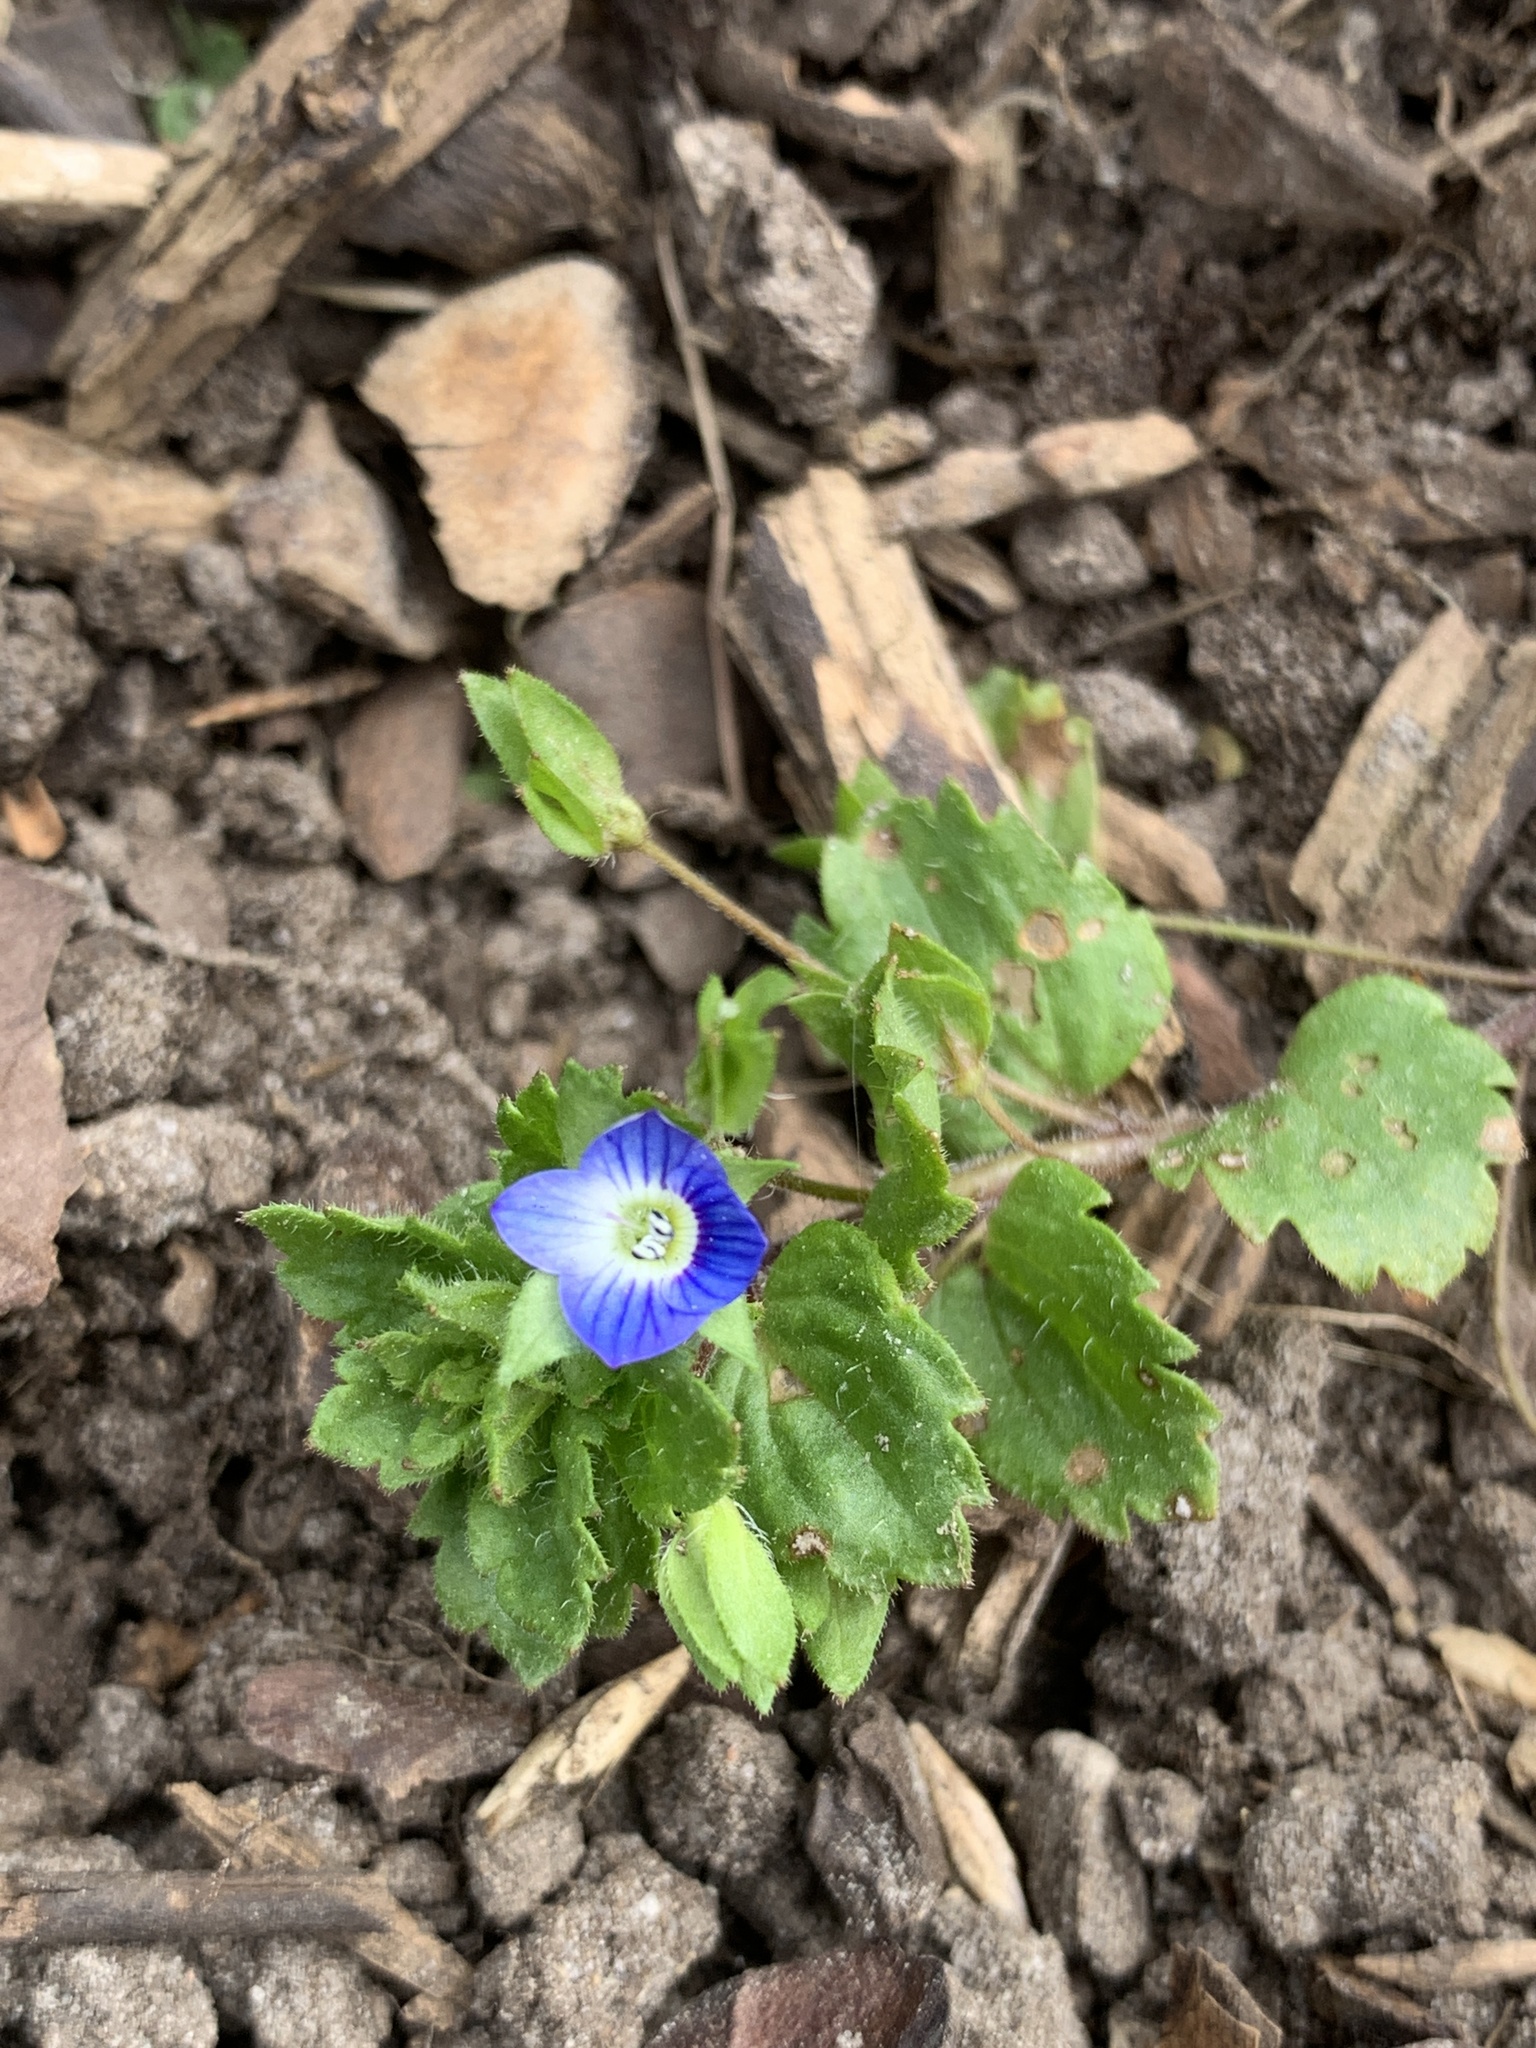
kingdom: Plantae
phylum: Tracheophyta
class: Magnoliopsida
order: Lamiales
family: Plantaginaceae
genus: Veronica
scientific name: Veronica persica
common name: Common field-speedwell
